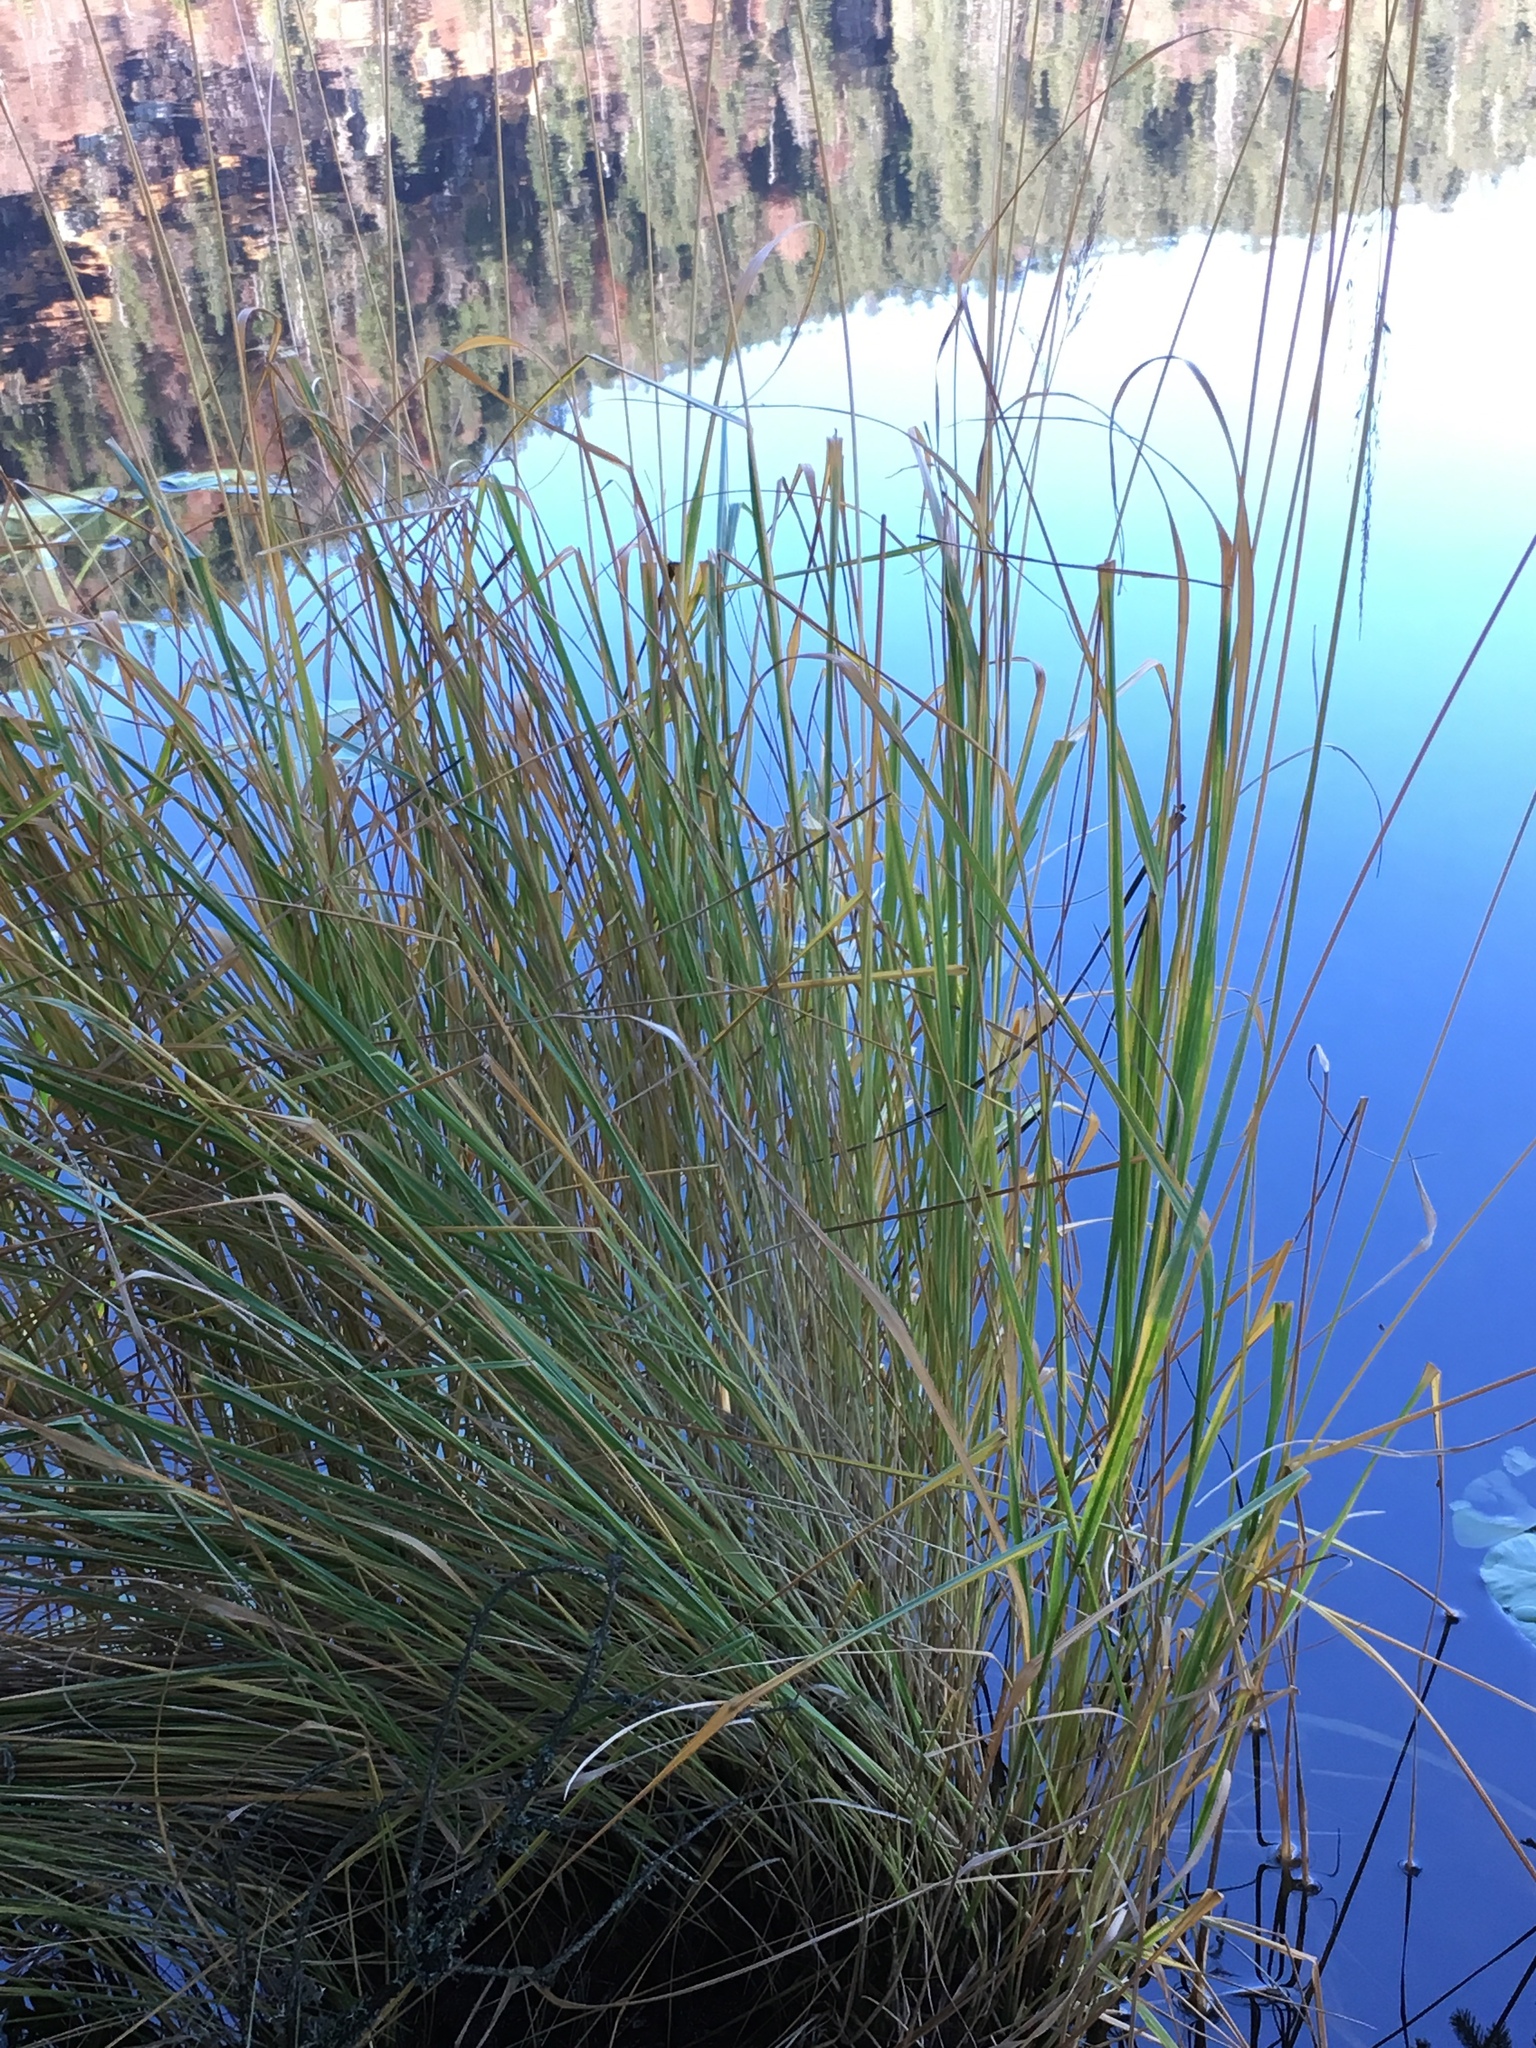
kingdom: Plantae
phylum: Tracheophyta
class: Liliopsida
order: Poales
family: Poaceae
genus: Lolium
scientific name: Lolium arundinaceum
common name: Reed fescue
